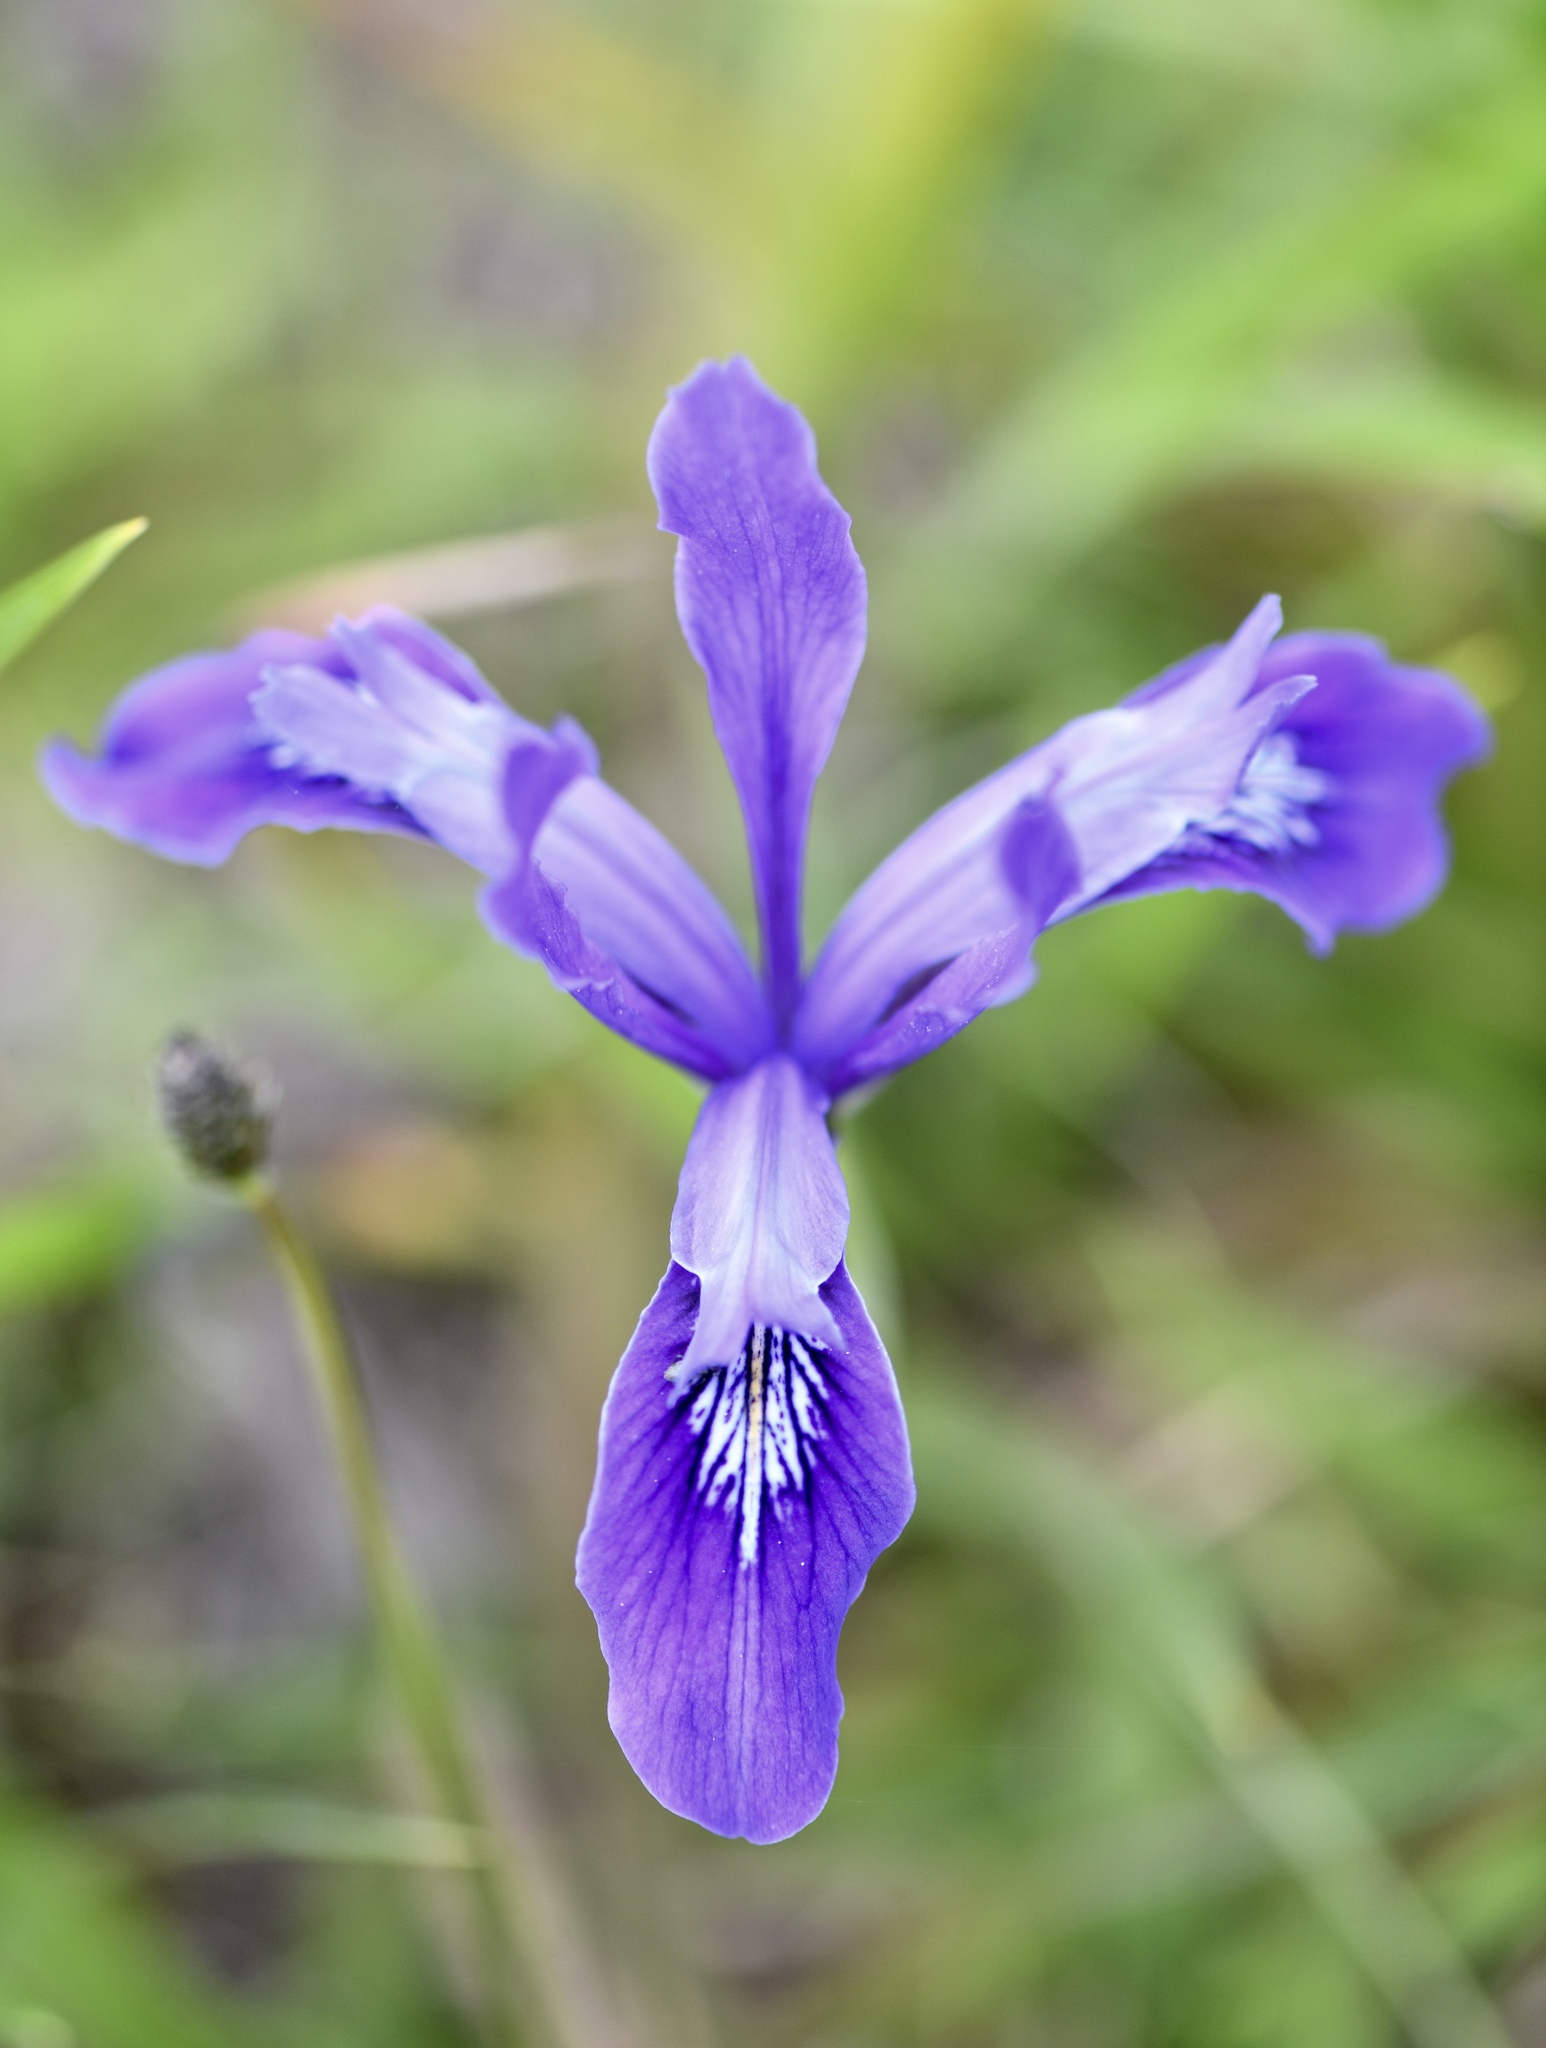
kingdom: Plantae
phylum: Tracheophyta
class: Liliopsida
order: Asparagales
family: Iridaceae
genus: Iris
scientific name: Iris douglasiana
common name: Marin iris
